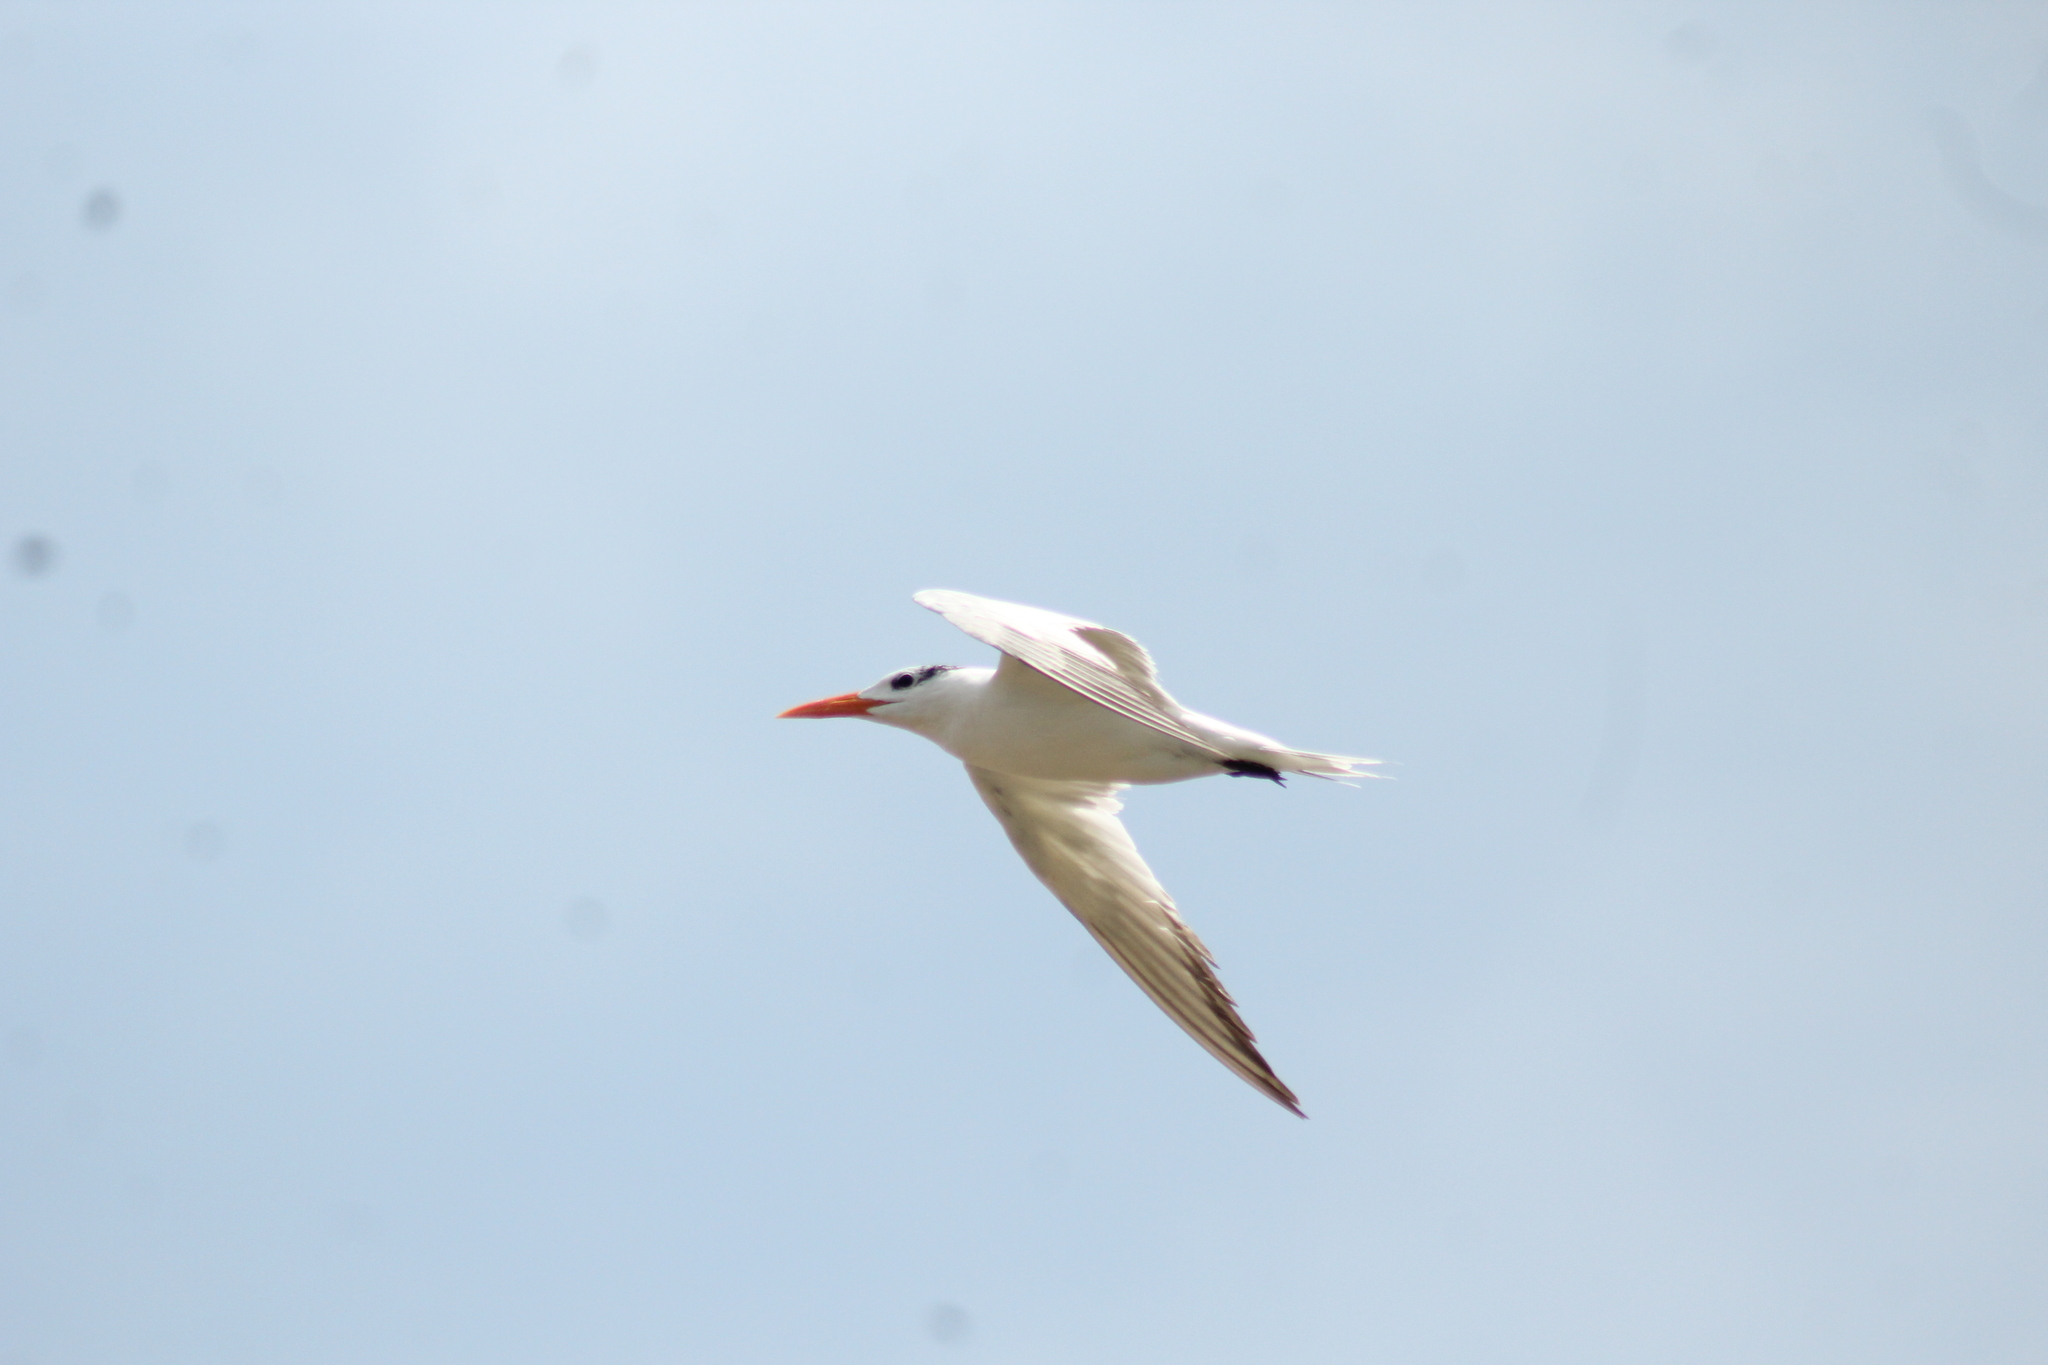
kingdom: Animalia
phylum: Chordata
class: Aves
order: Charadriiformes
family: Laridae
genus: Thalasseus
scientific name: Thalasseus maximus
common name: Royal tern
